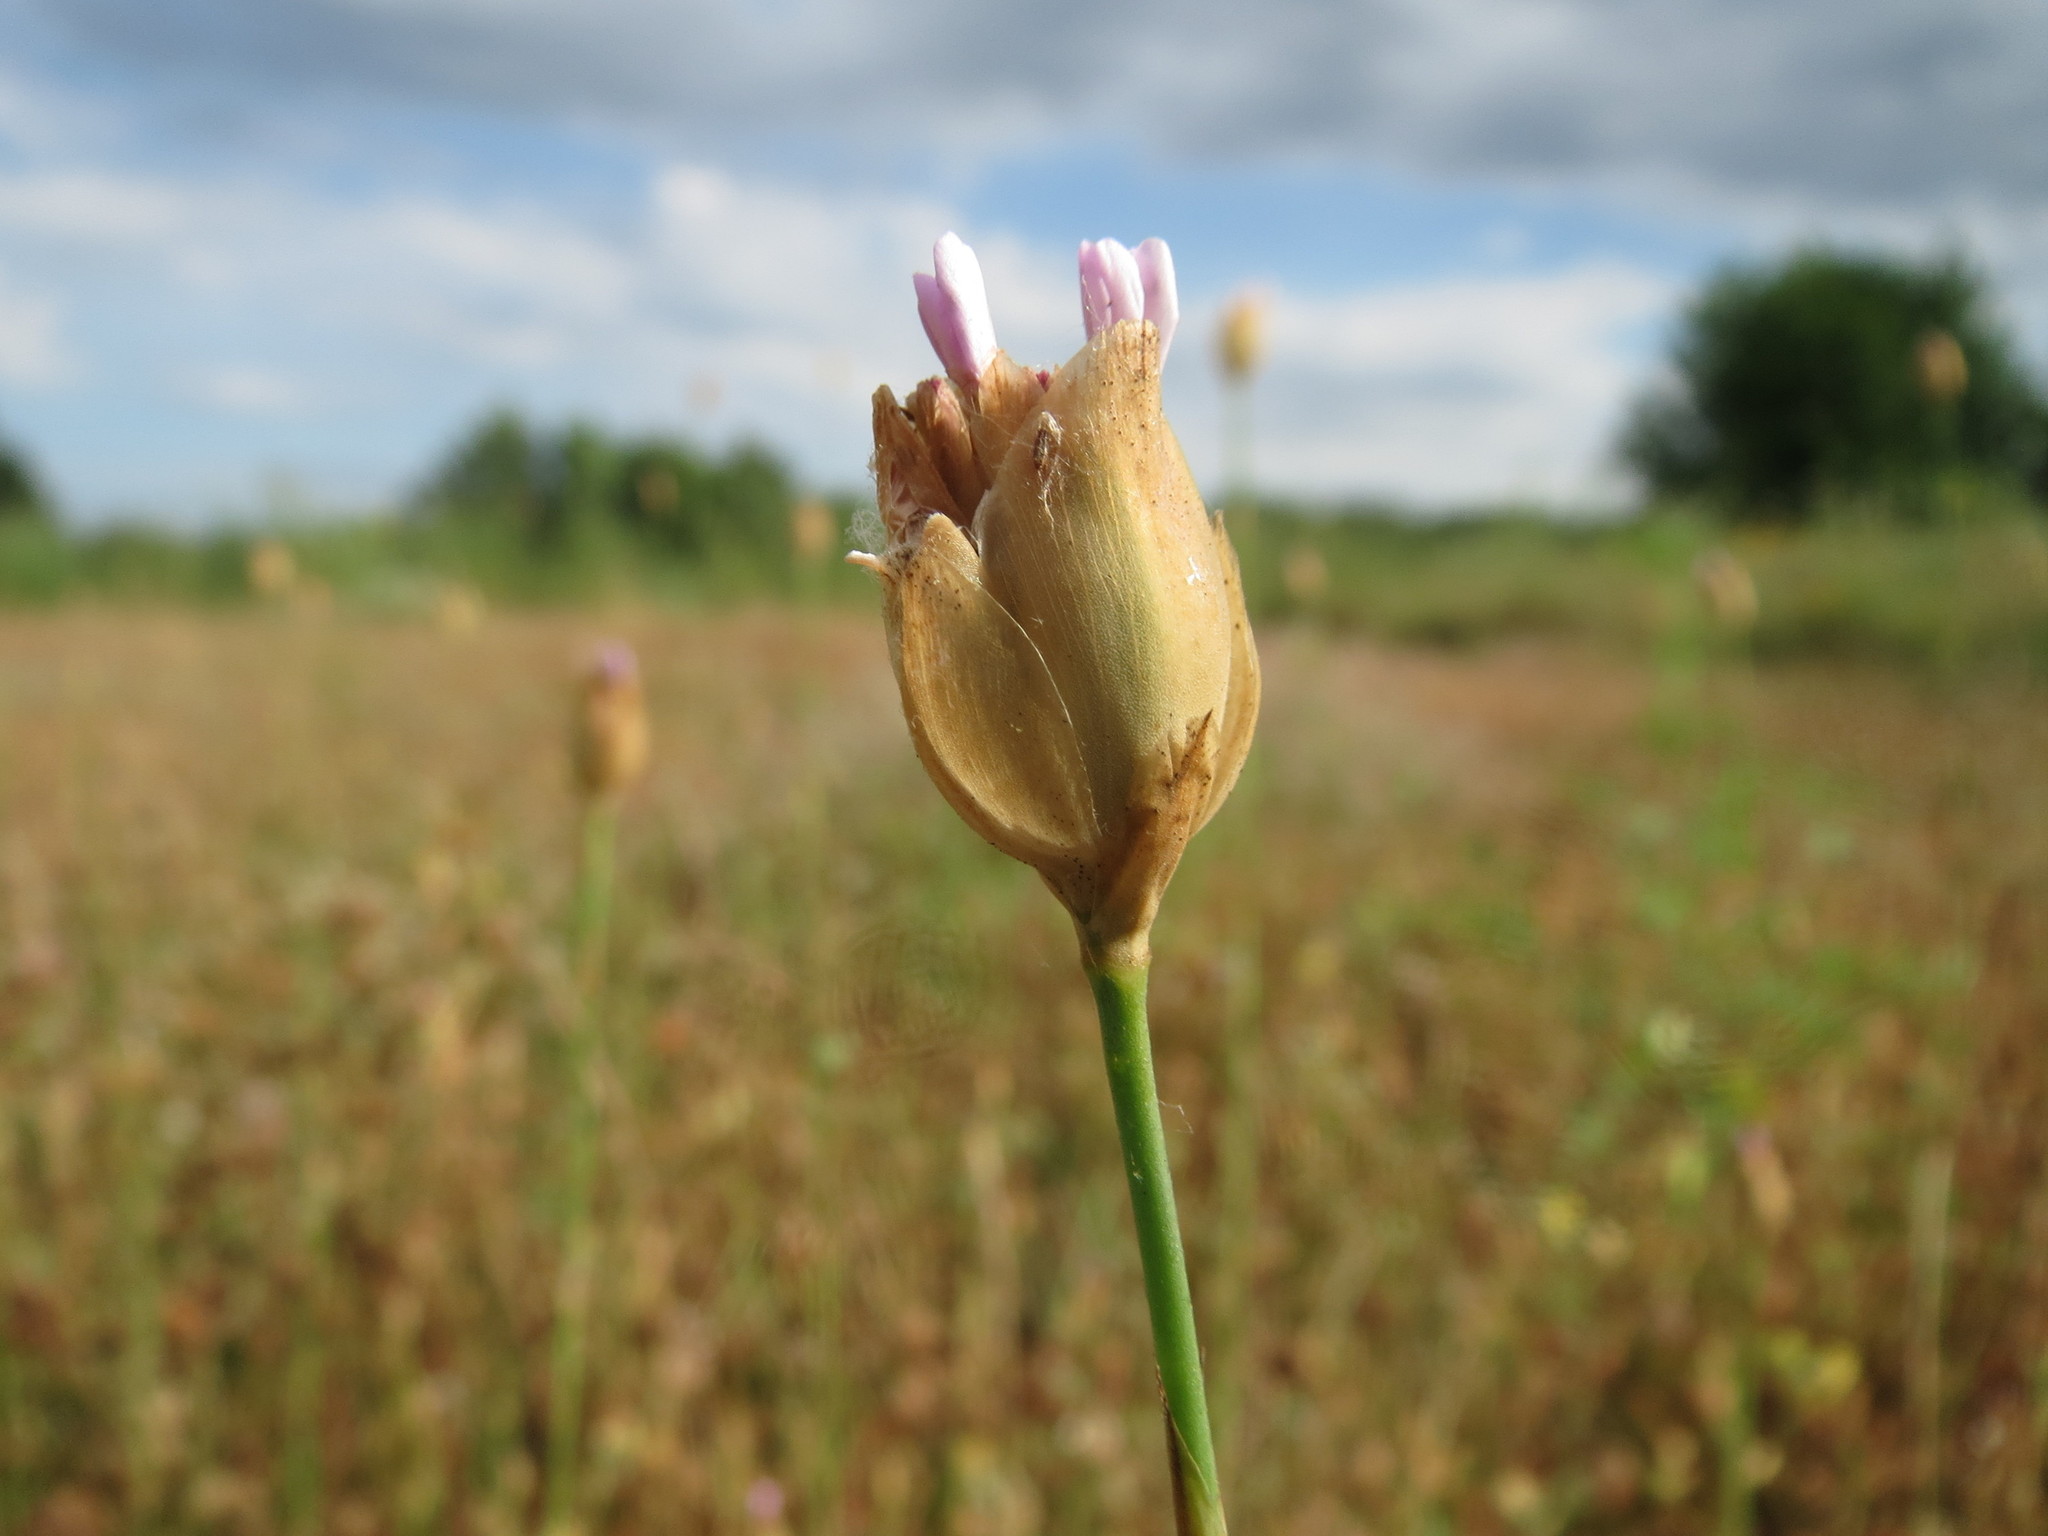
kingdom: Plantae
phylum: Tracheophyta
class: Magnoliopsida
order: Caryophyllales
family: Caryophyllaceae
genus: Petrorhagia
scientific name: Petrorhagia prolifera
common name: Proliferous pink
